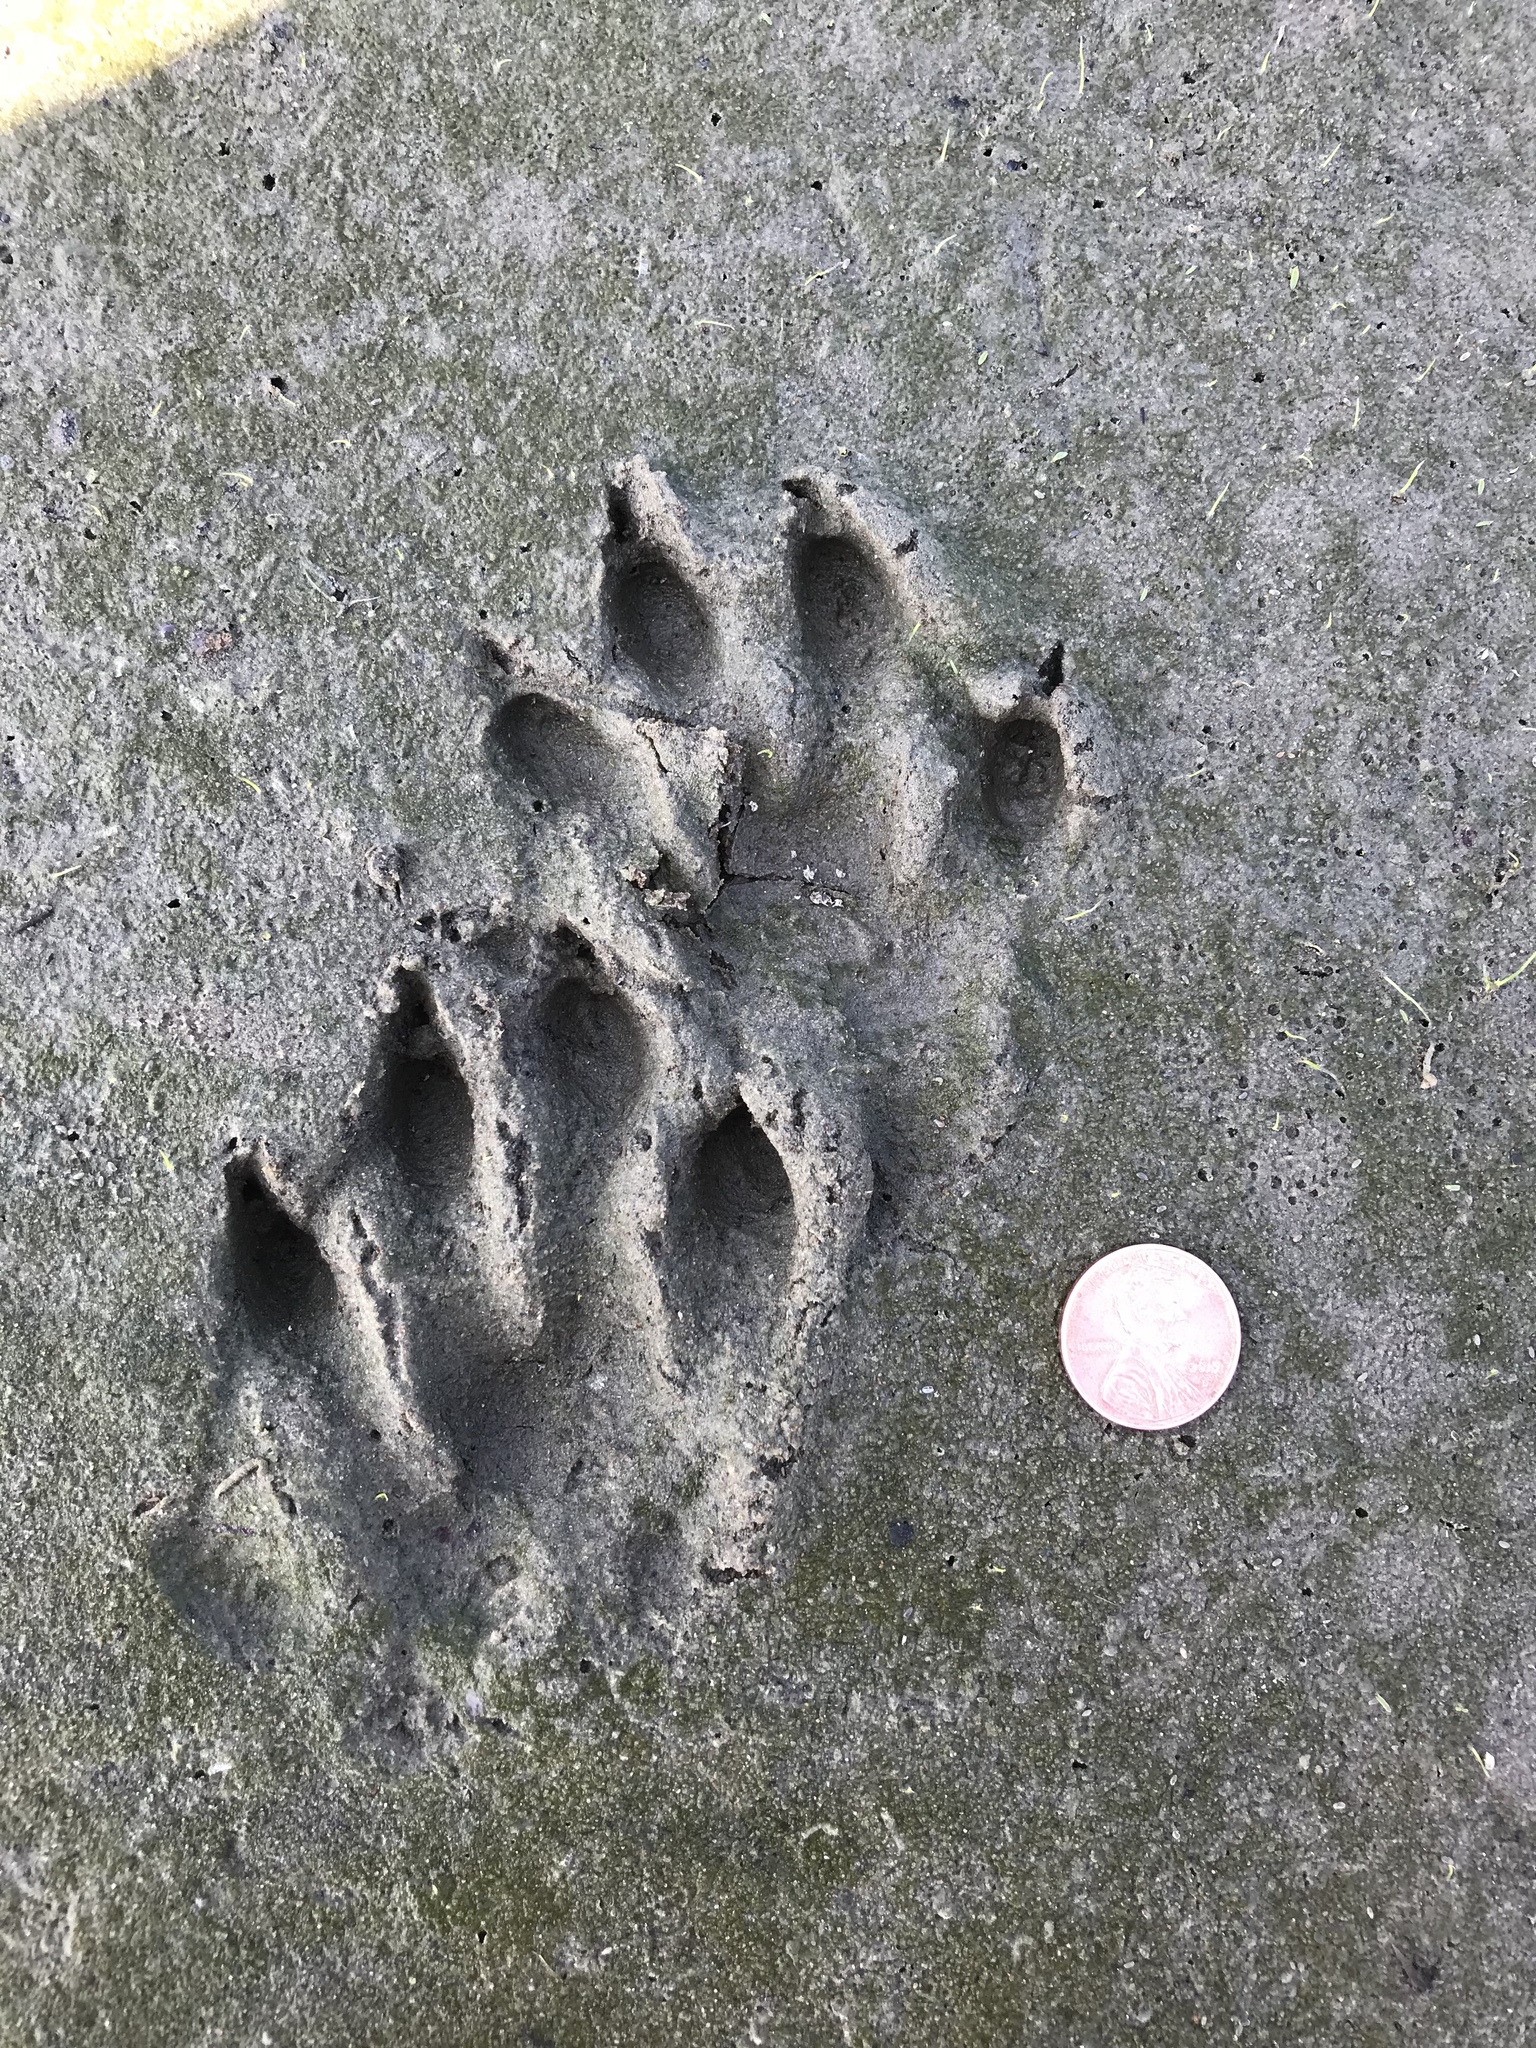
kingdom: Animalia
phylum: Chordata
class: Mammalia
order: Carnivora
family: Mustelidae
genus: Lontra
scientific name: Lontra canadensis
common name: North american river otter
